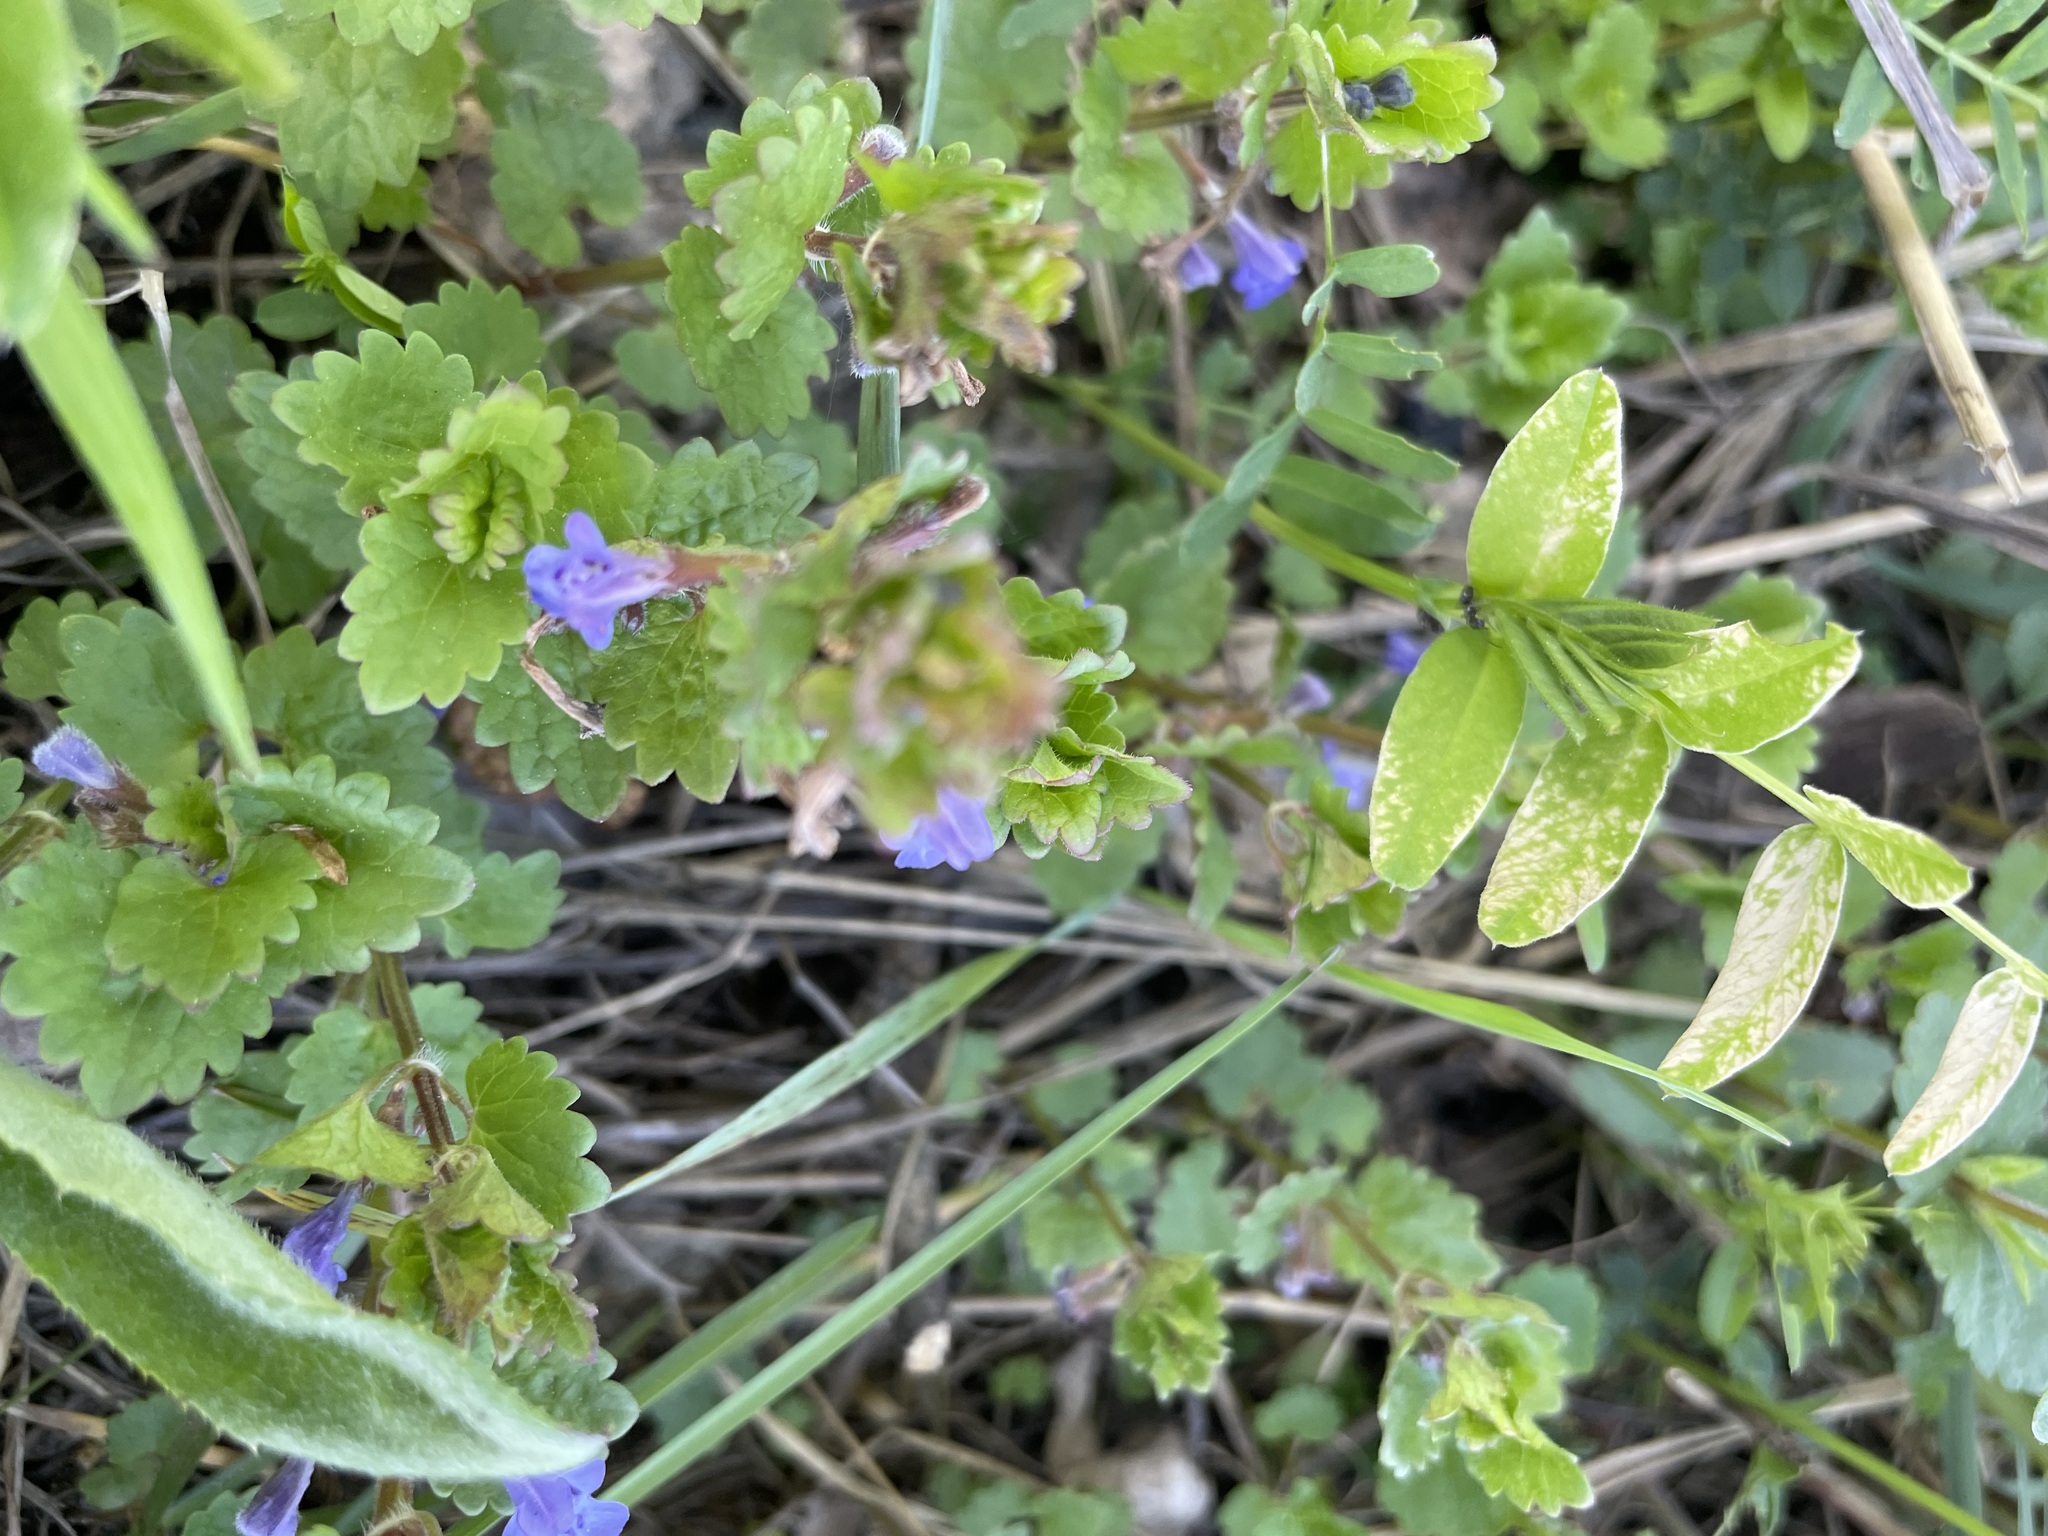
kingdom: Plantae
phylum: Tracheophyta
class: Magnoliopsida
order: Lamiales
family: Lamiaceae
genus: Glechoma
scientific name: Glechoma hederacea
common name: Ground ivy
